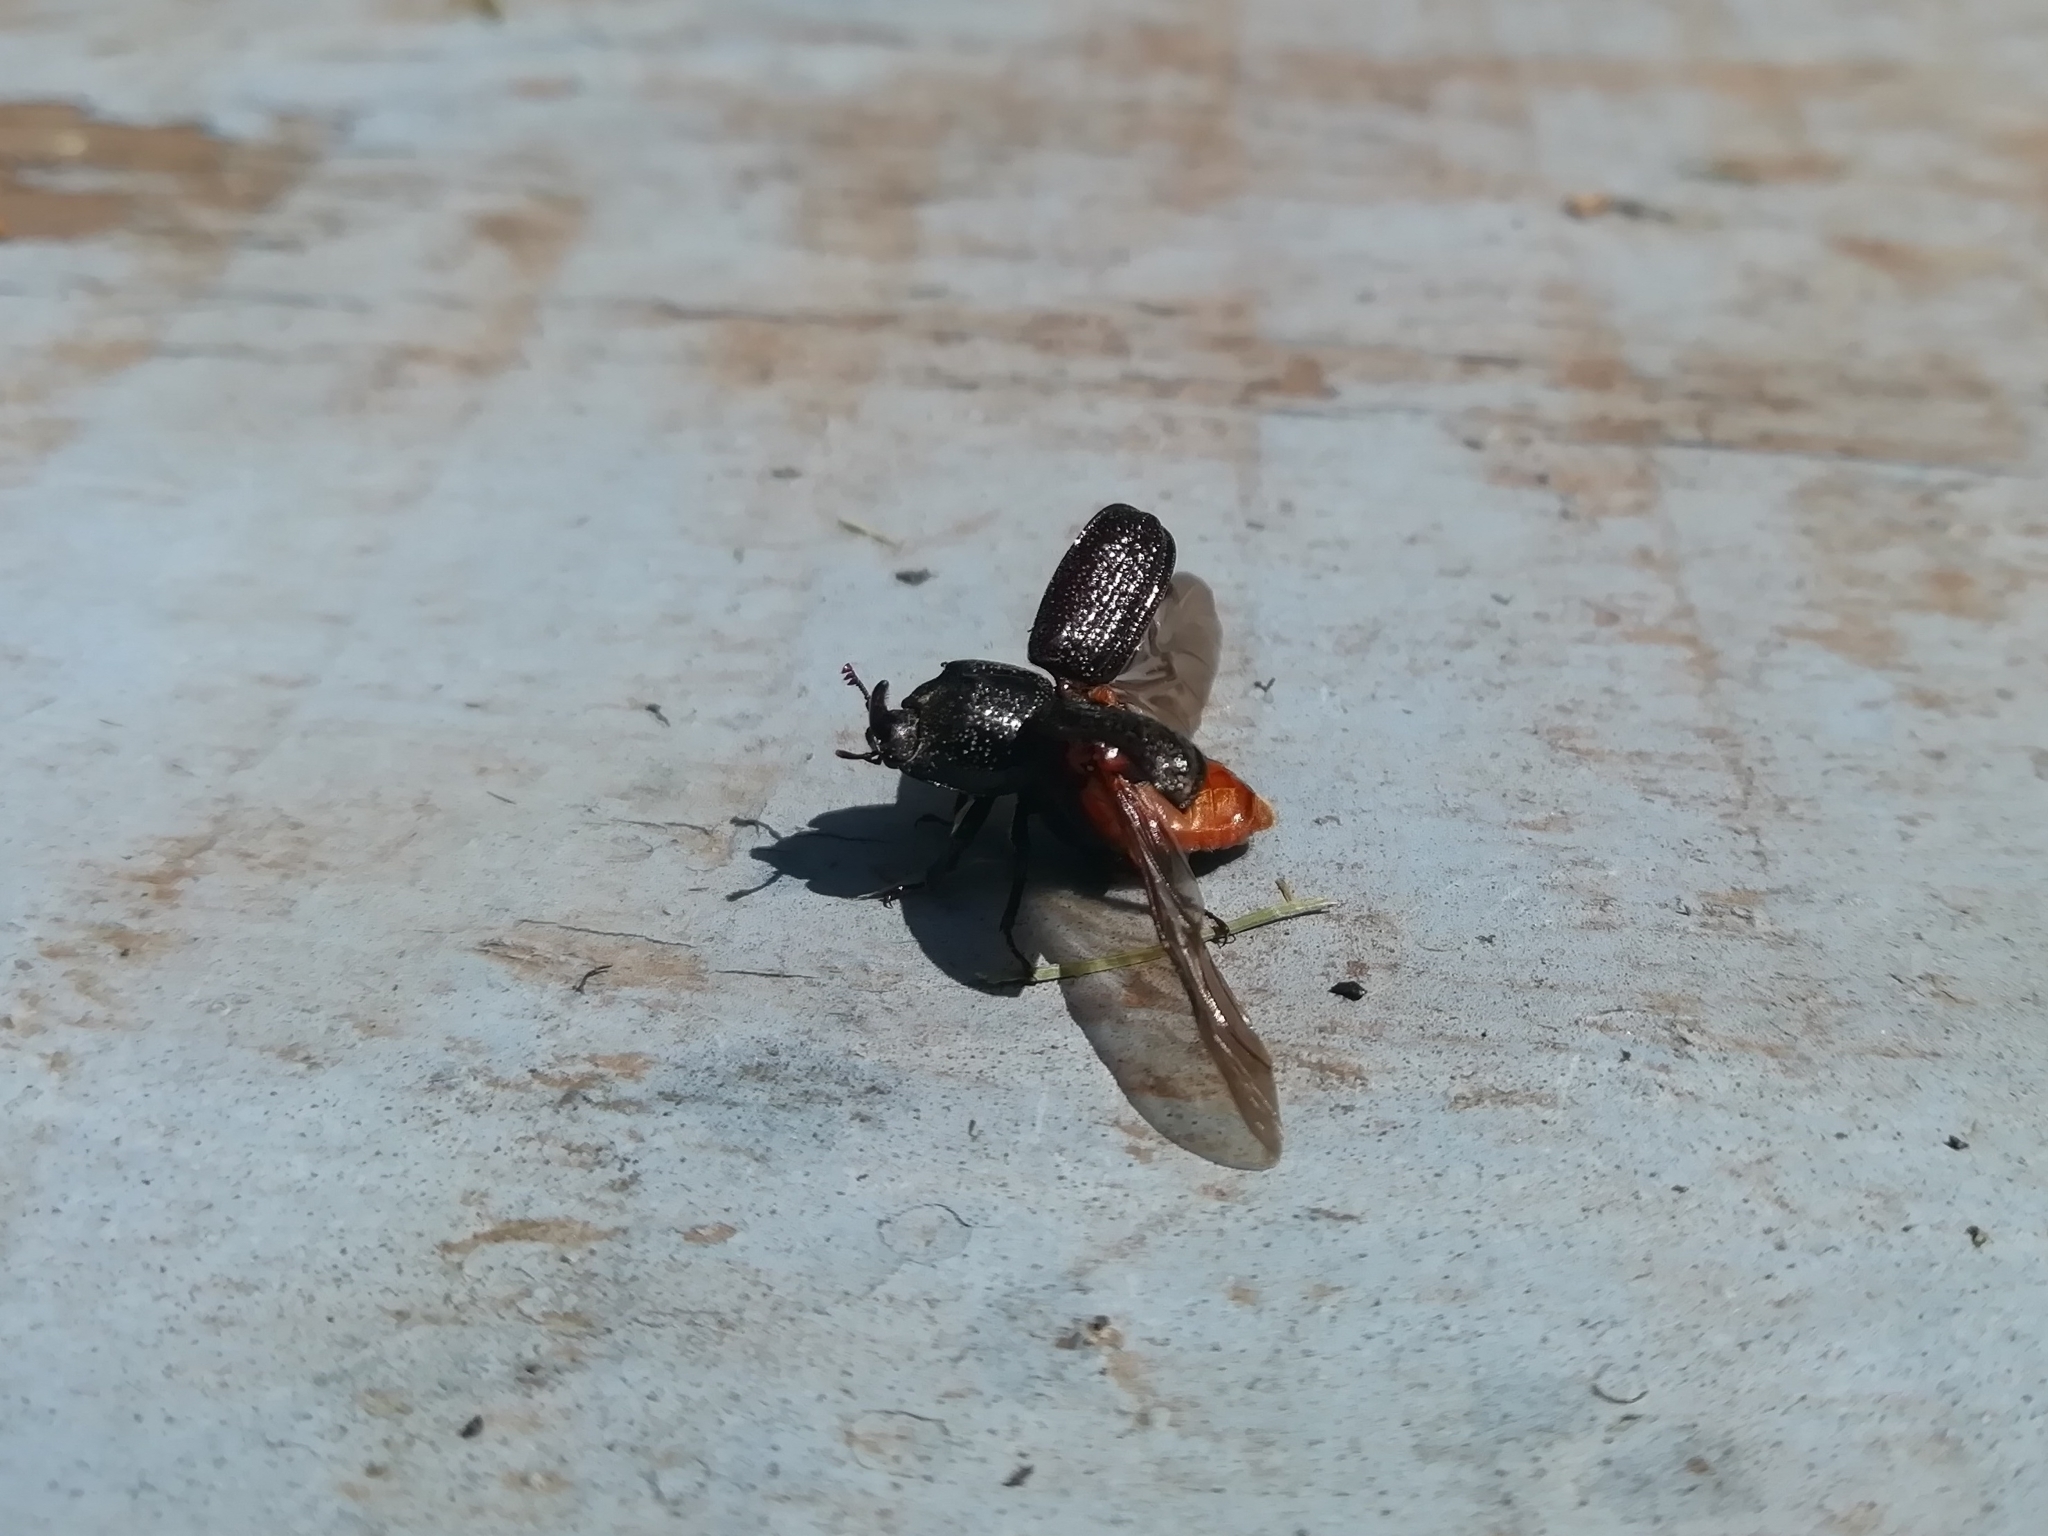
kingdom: Animalia
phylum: Arthropoda
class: Insecta
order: Coleoptera
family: Lucanidae
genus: Sinodendron
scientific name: Sinodendron cylindricum
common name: Rhinoceros beetle
